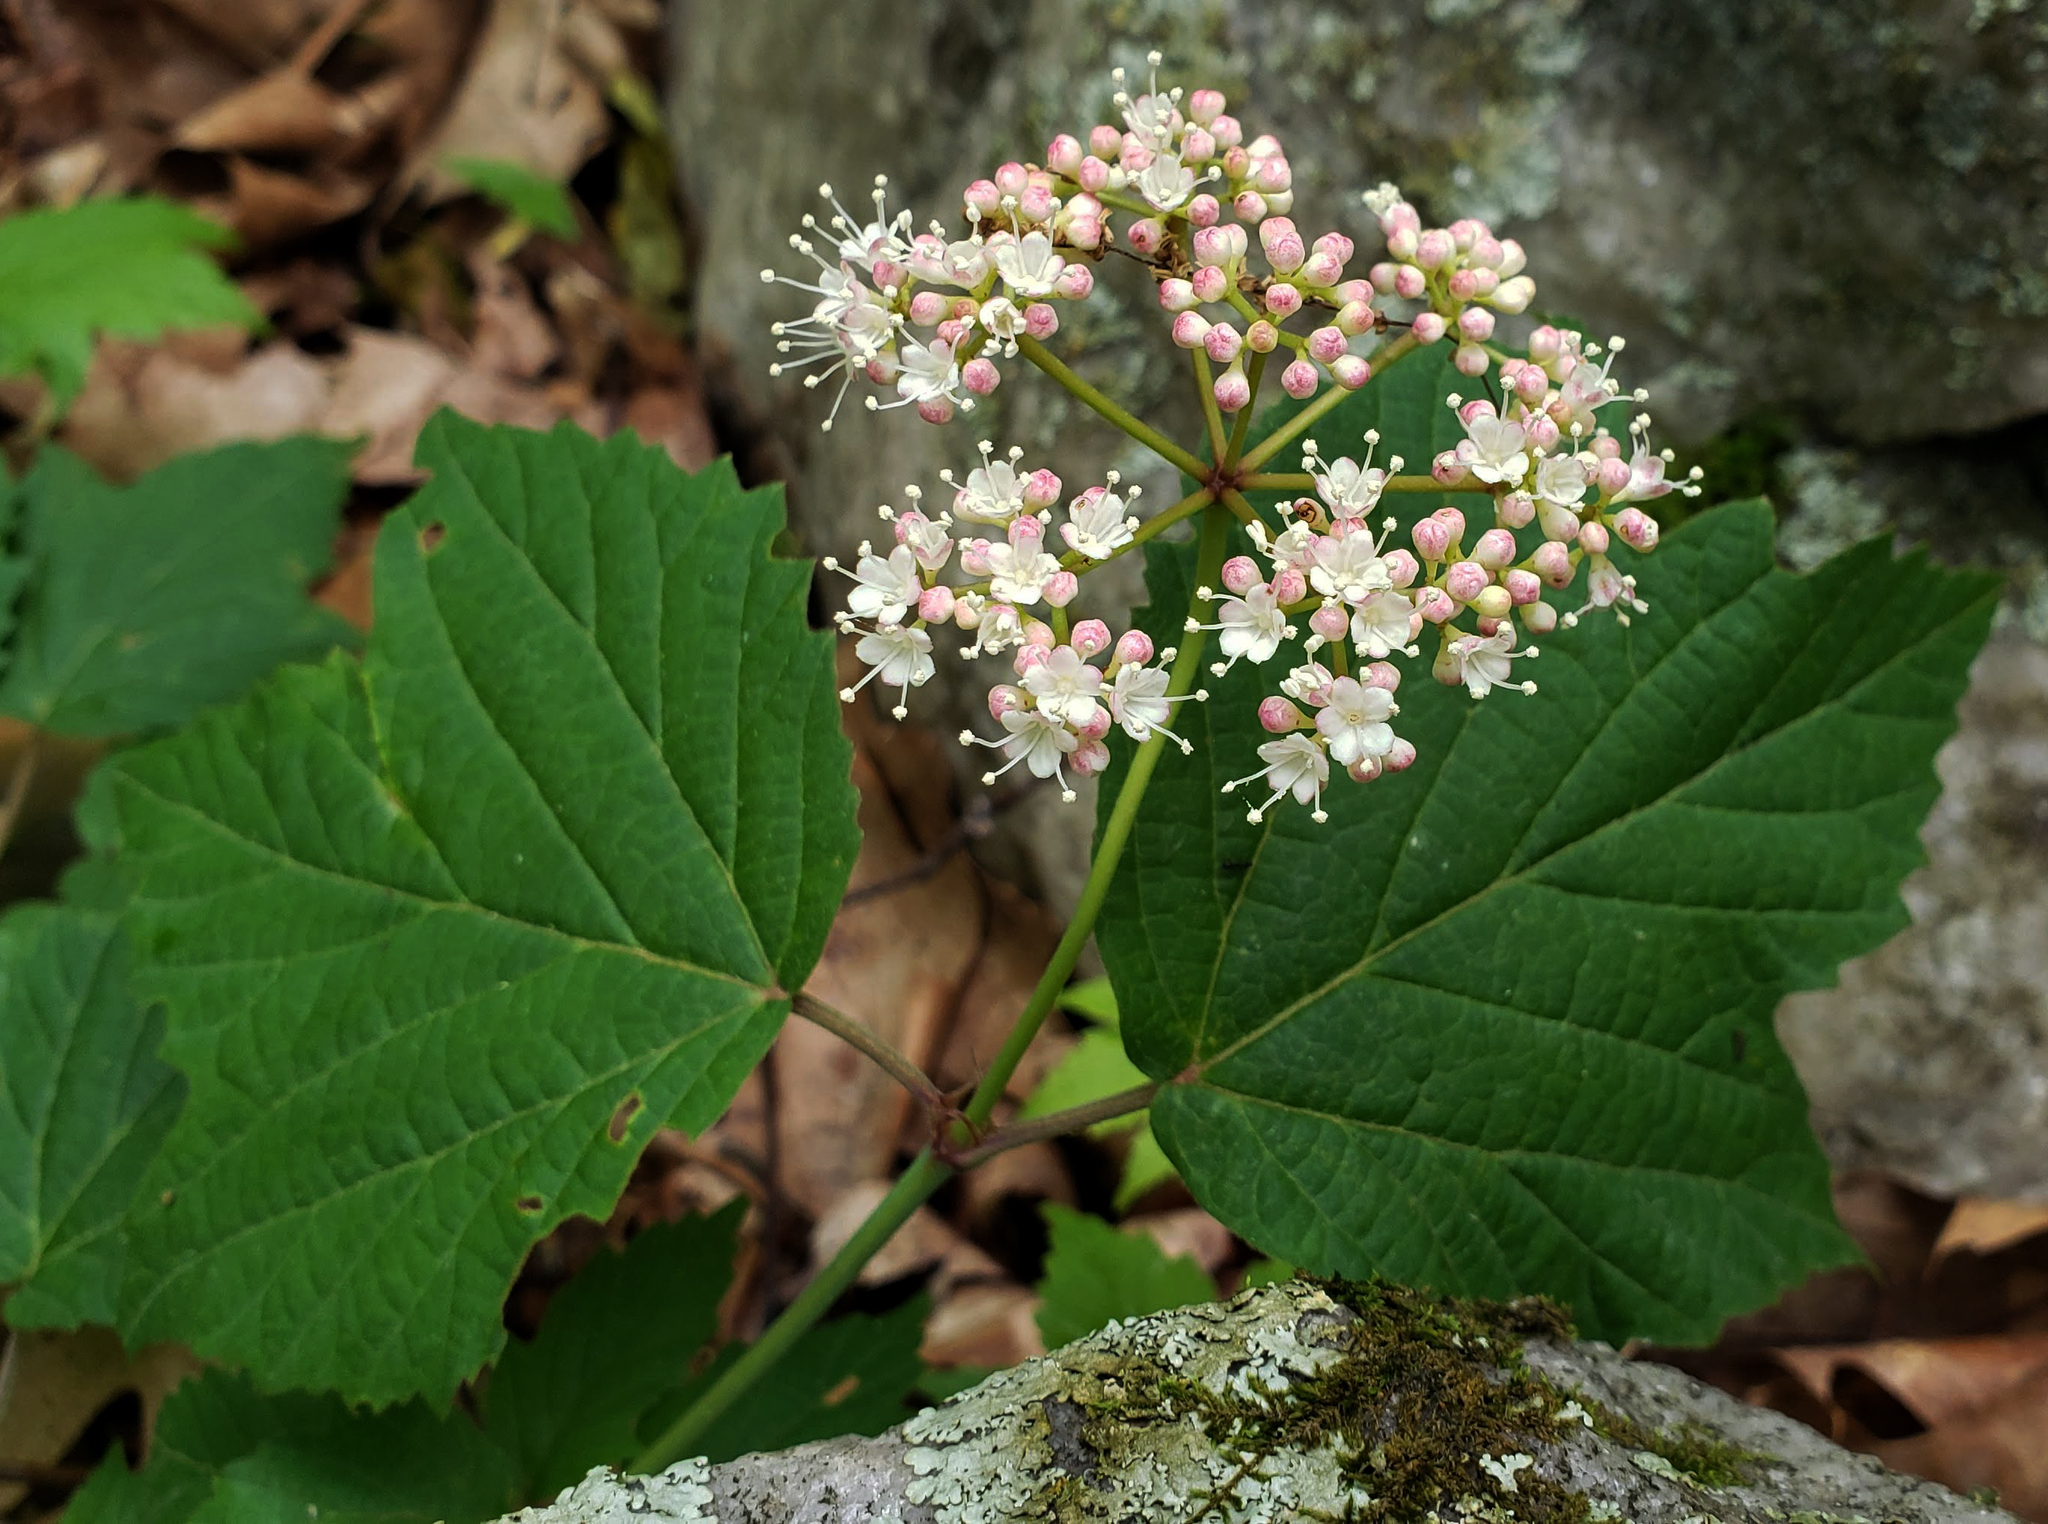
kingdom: Plantae
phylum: Tracheophyta
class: Magnoliopsida
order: Dipsacales
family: Viburnaceae
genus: Viburnum
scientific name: Viburnum acerifolium
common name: Dockmackie
